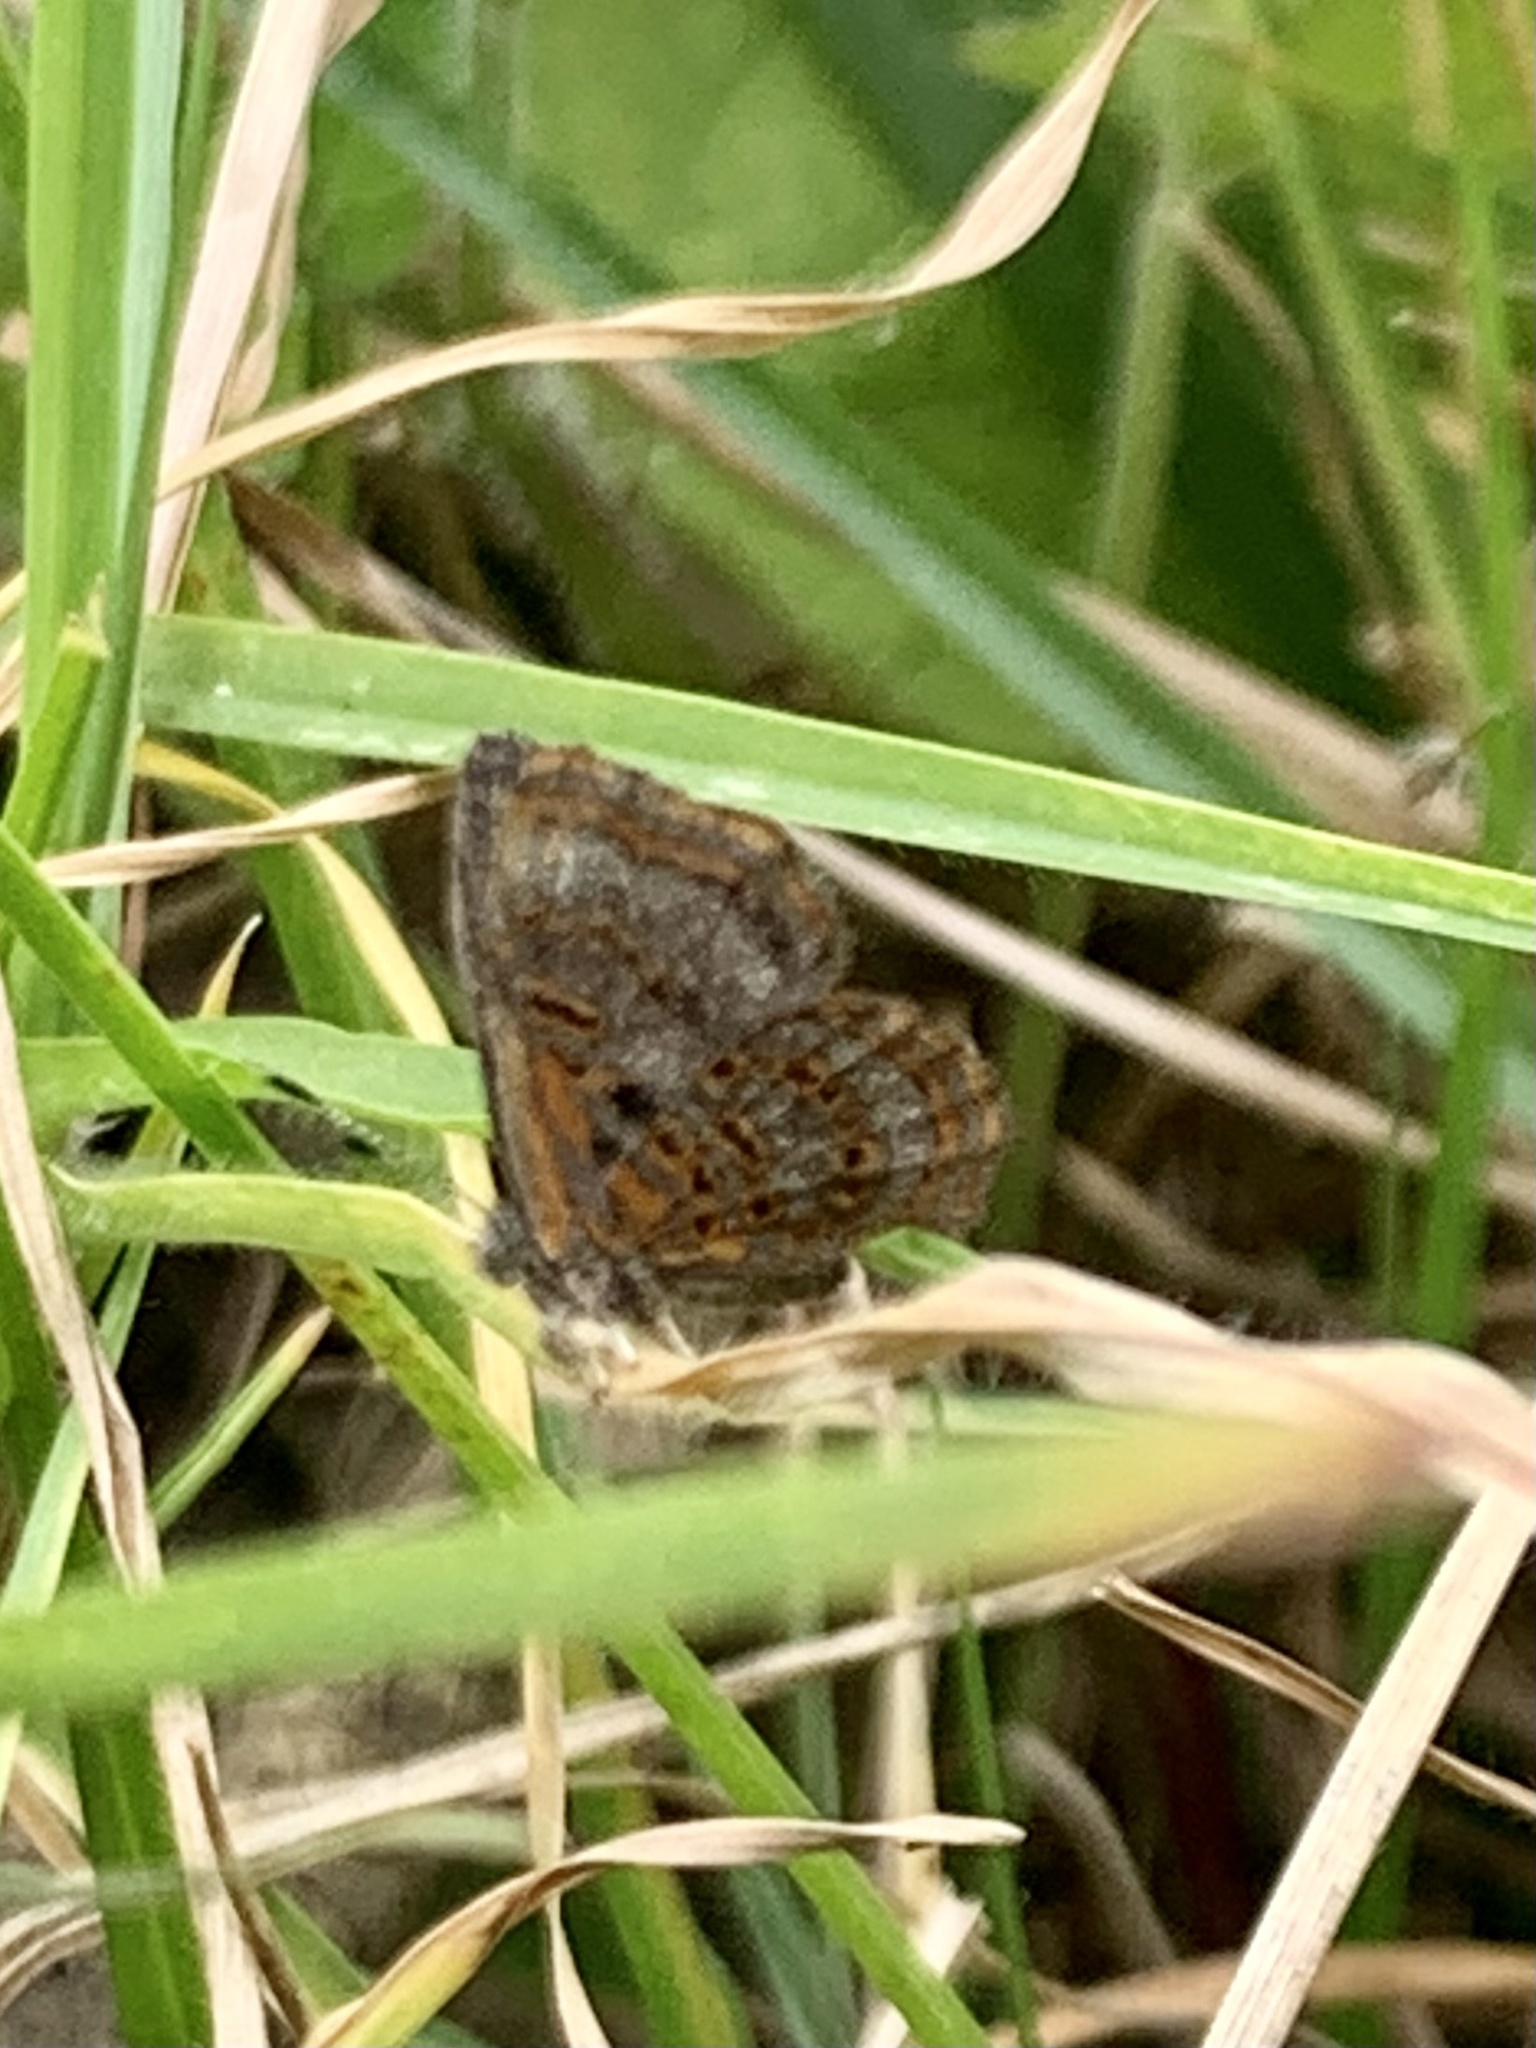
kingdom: Animalia
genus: Charis
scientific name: Charis acanthoides
